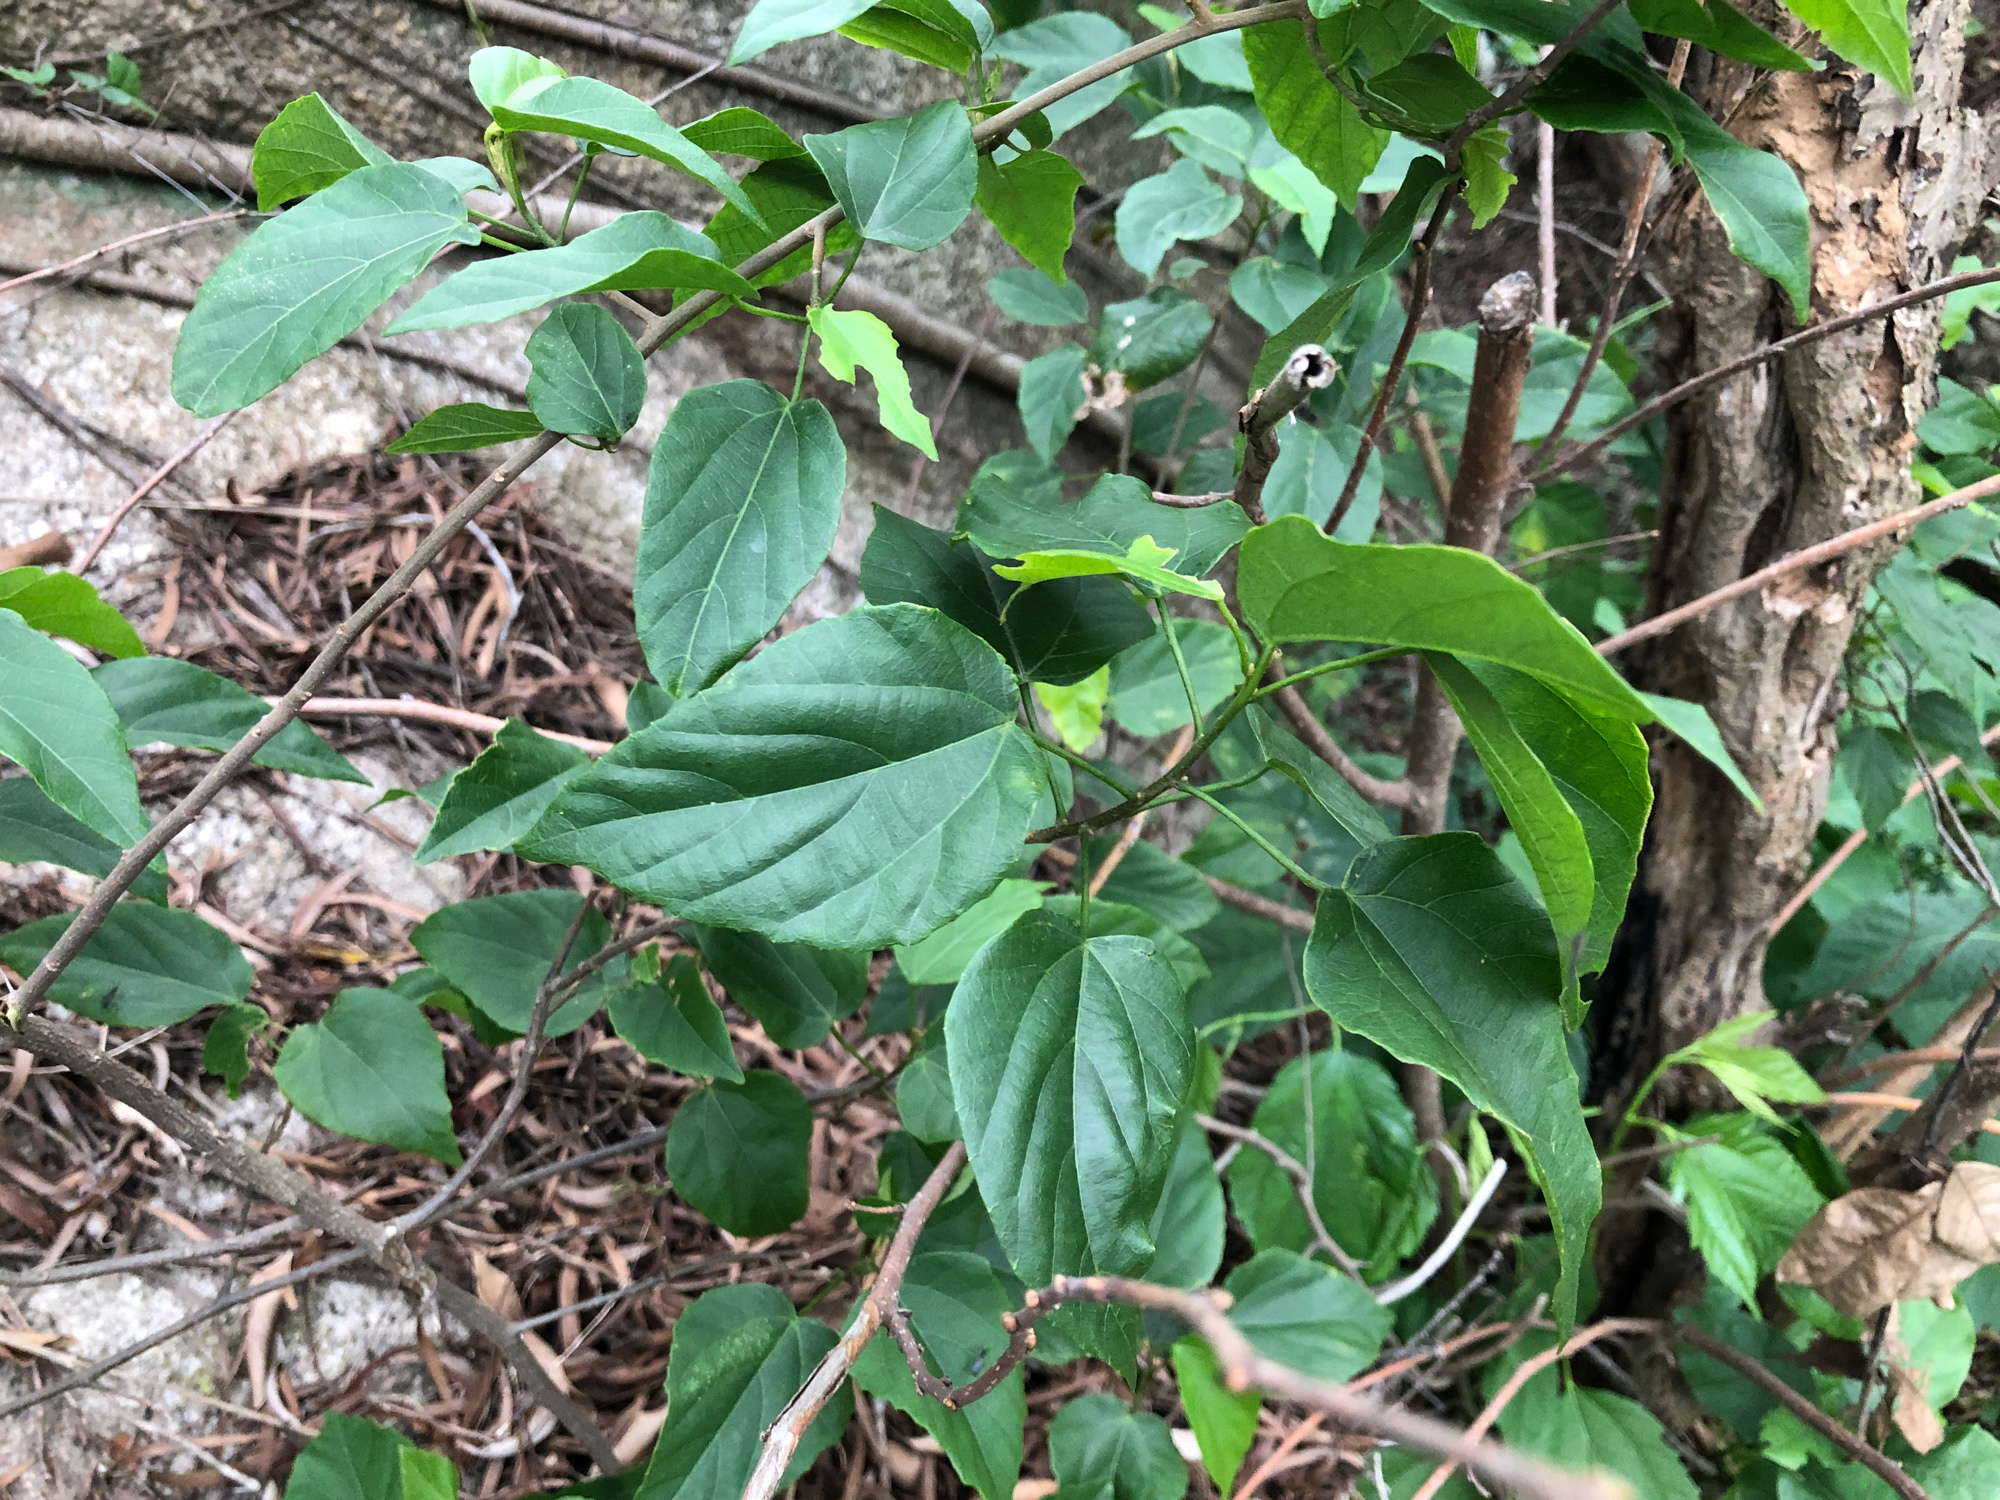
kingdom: Plantae
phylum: Tracheophyta
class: Magnoliopsida
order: Malpighiales
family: Euphorbiaceae
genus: Mallotus
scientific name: Mallotus repandus
